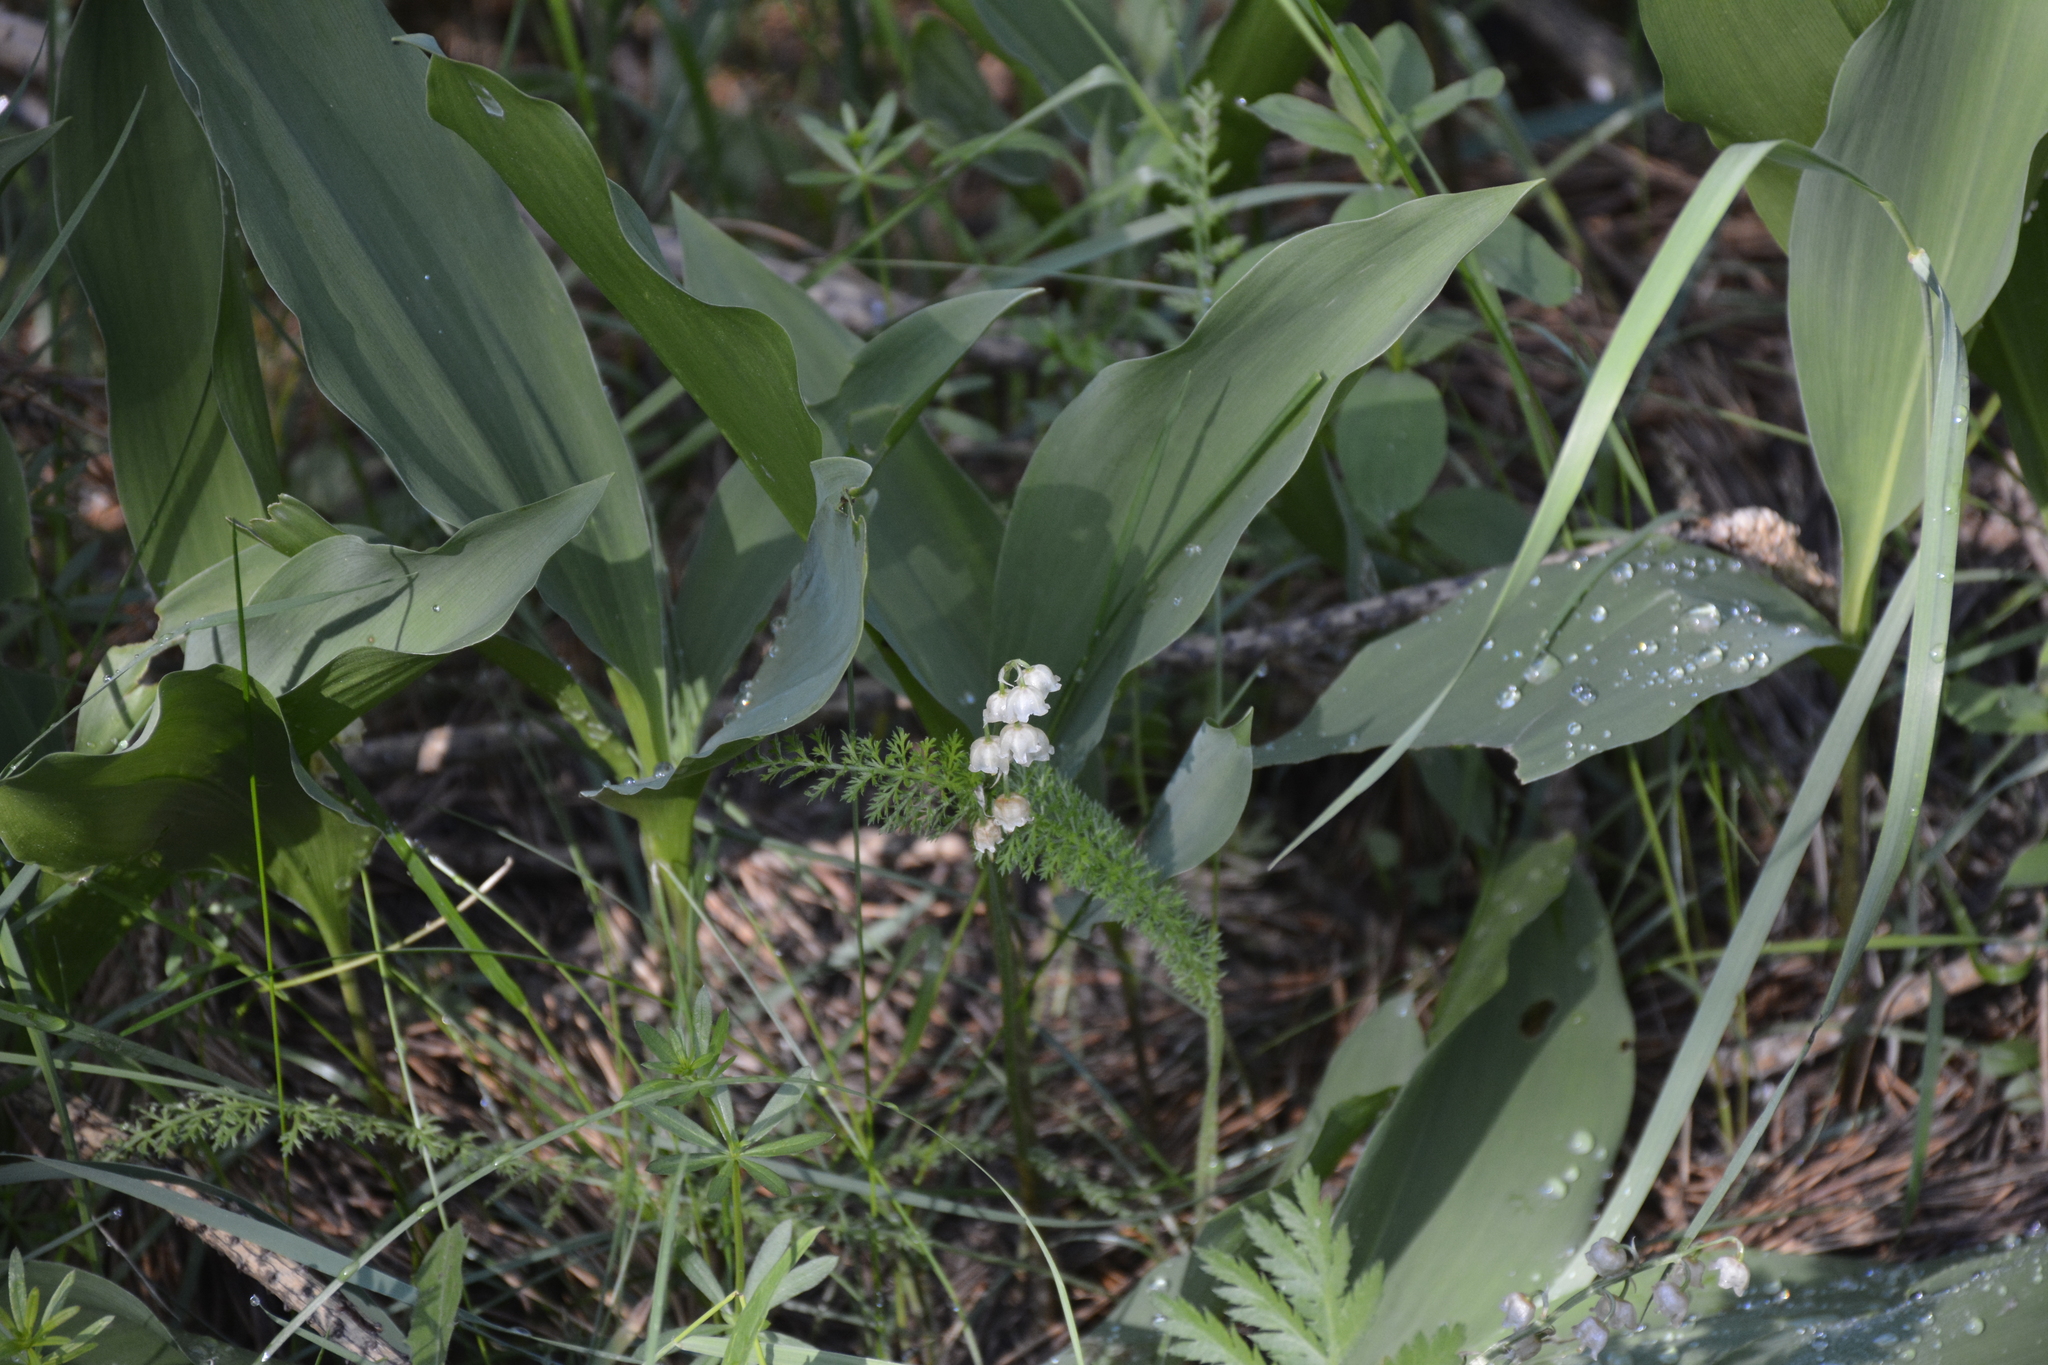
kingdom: Plantae
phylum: Tracheophyta
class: Liliopsida
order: Asparagales
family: Asparagaceae
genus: Convallaria
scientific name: Convallaria majalis
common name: Lily-of-the-valley
